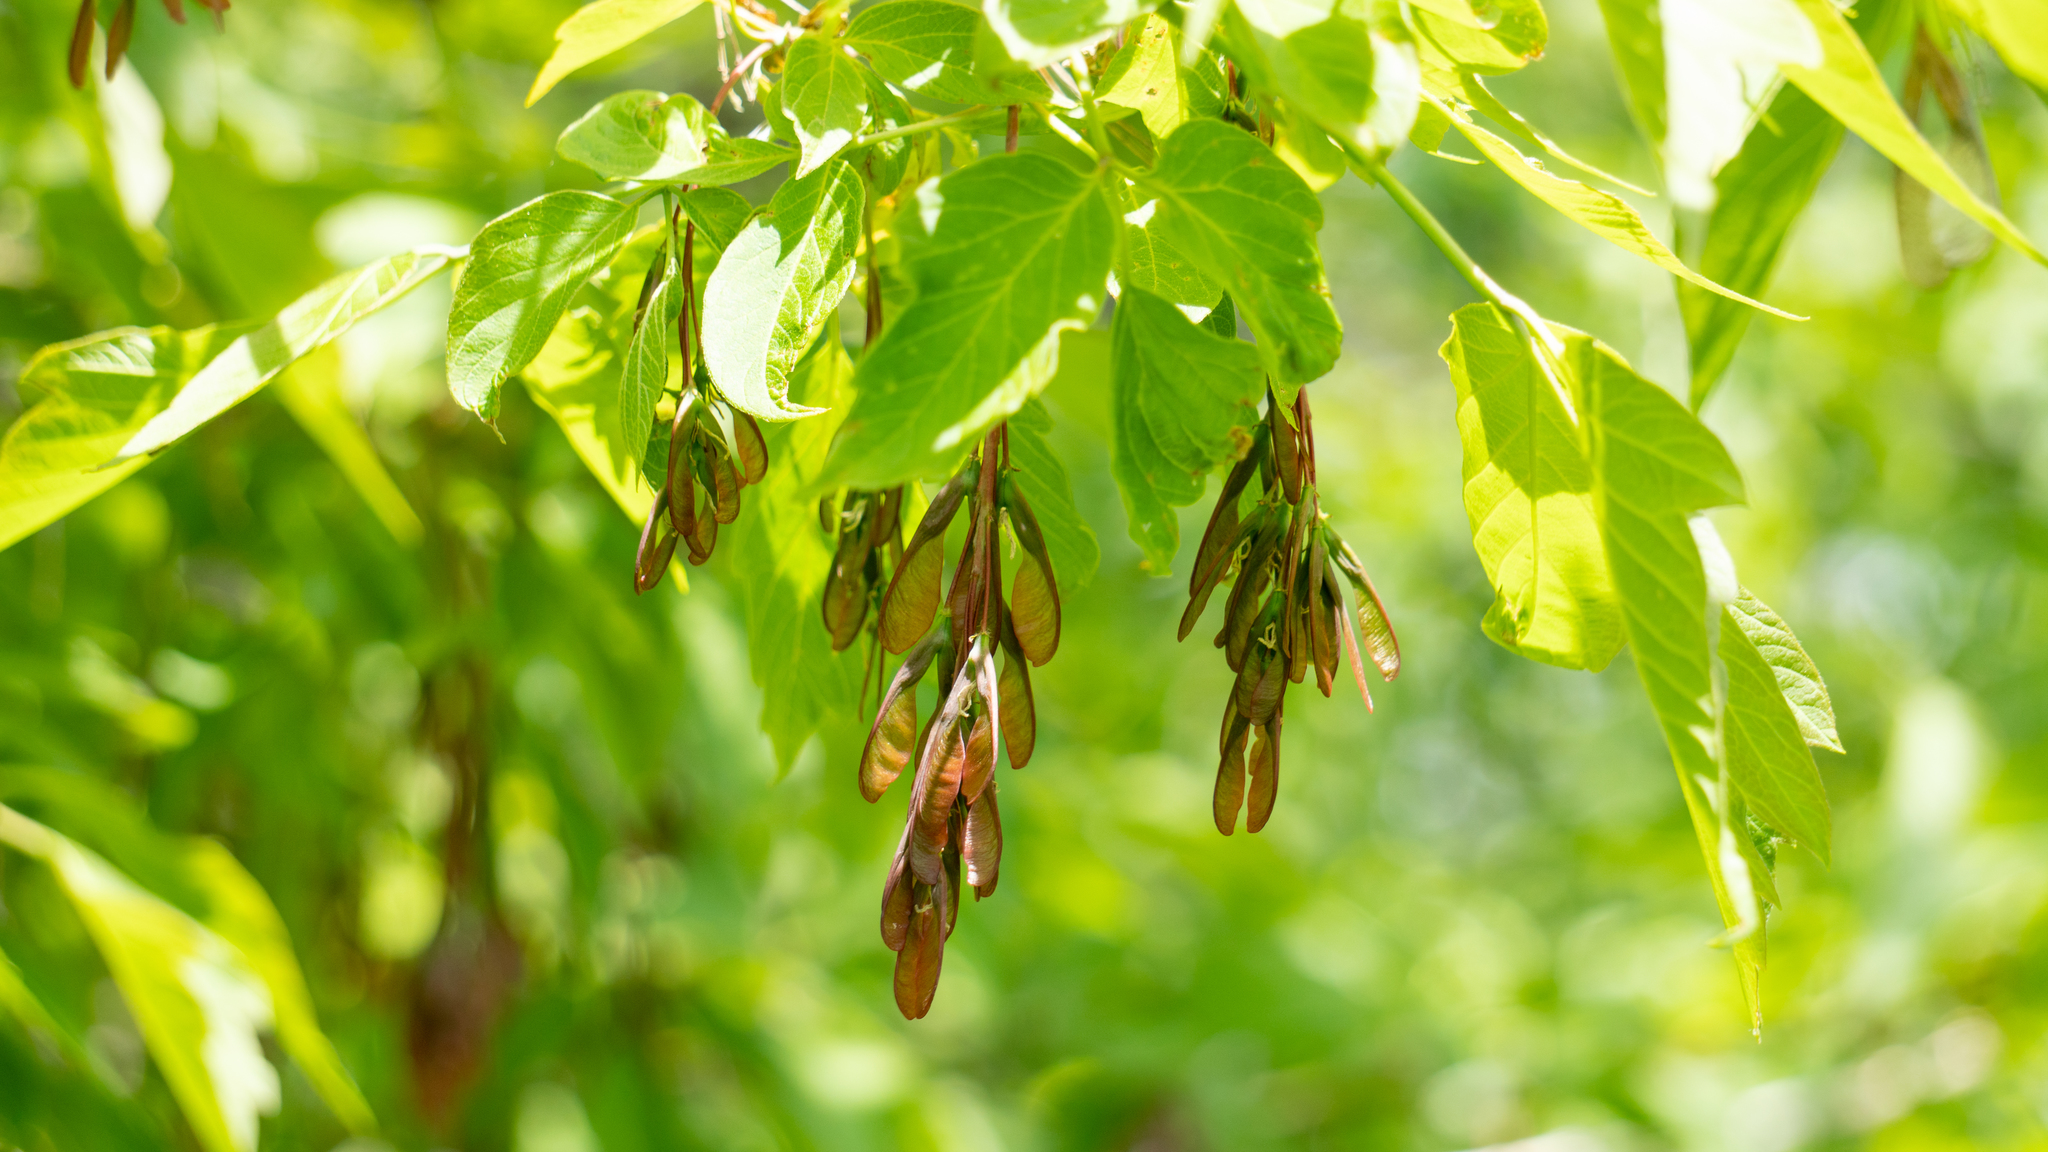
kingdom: Plantae
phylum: Tracheophyta
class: Magnoliopsida
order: Sapindales
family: Sapindaceae
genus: Acer
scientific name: Acer negundo
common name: Ashleaf maple
